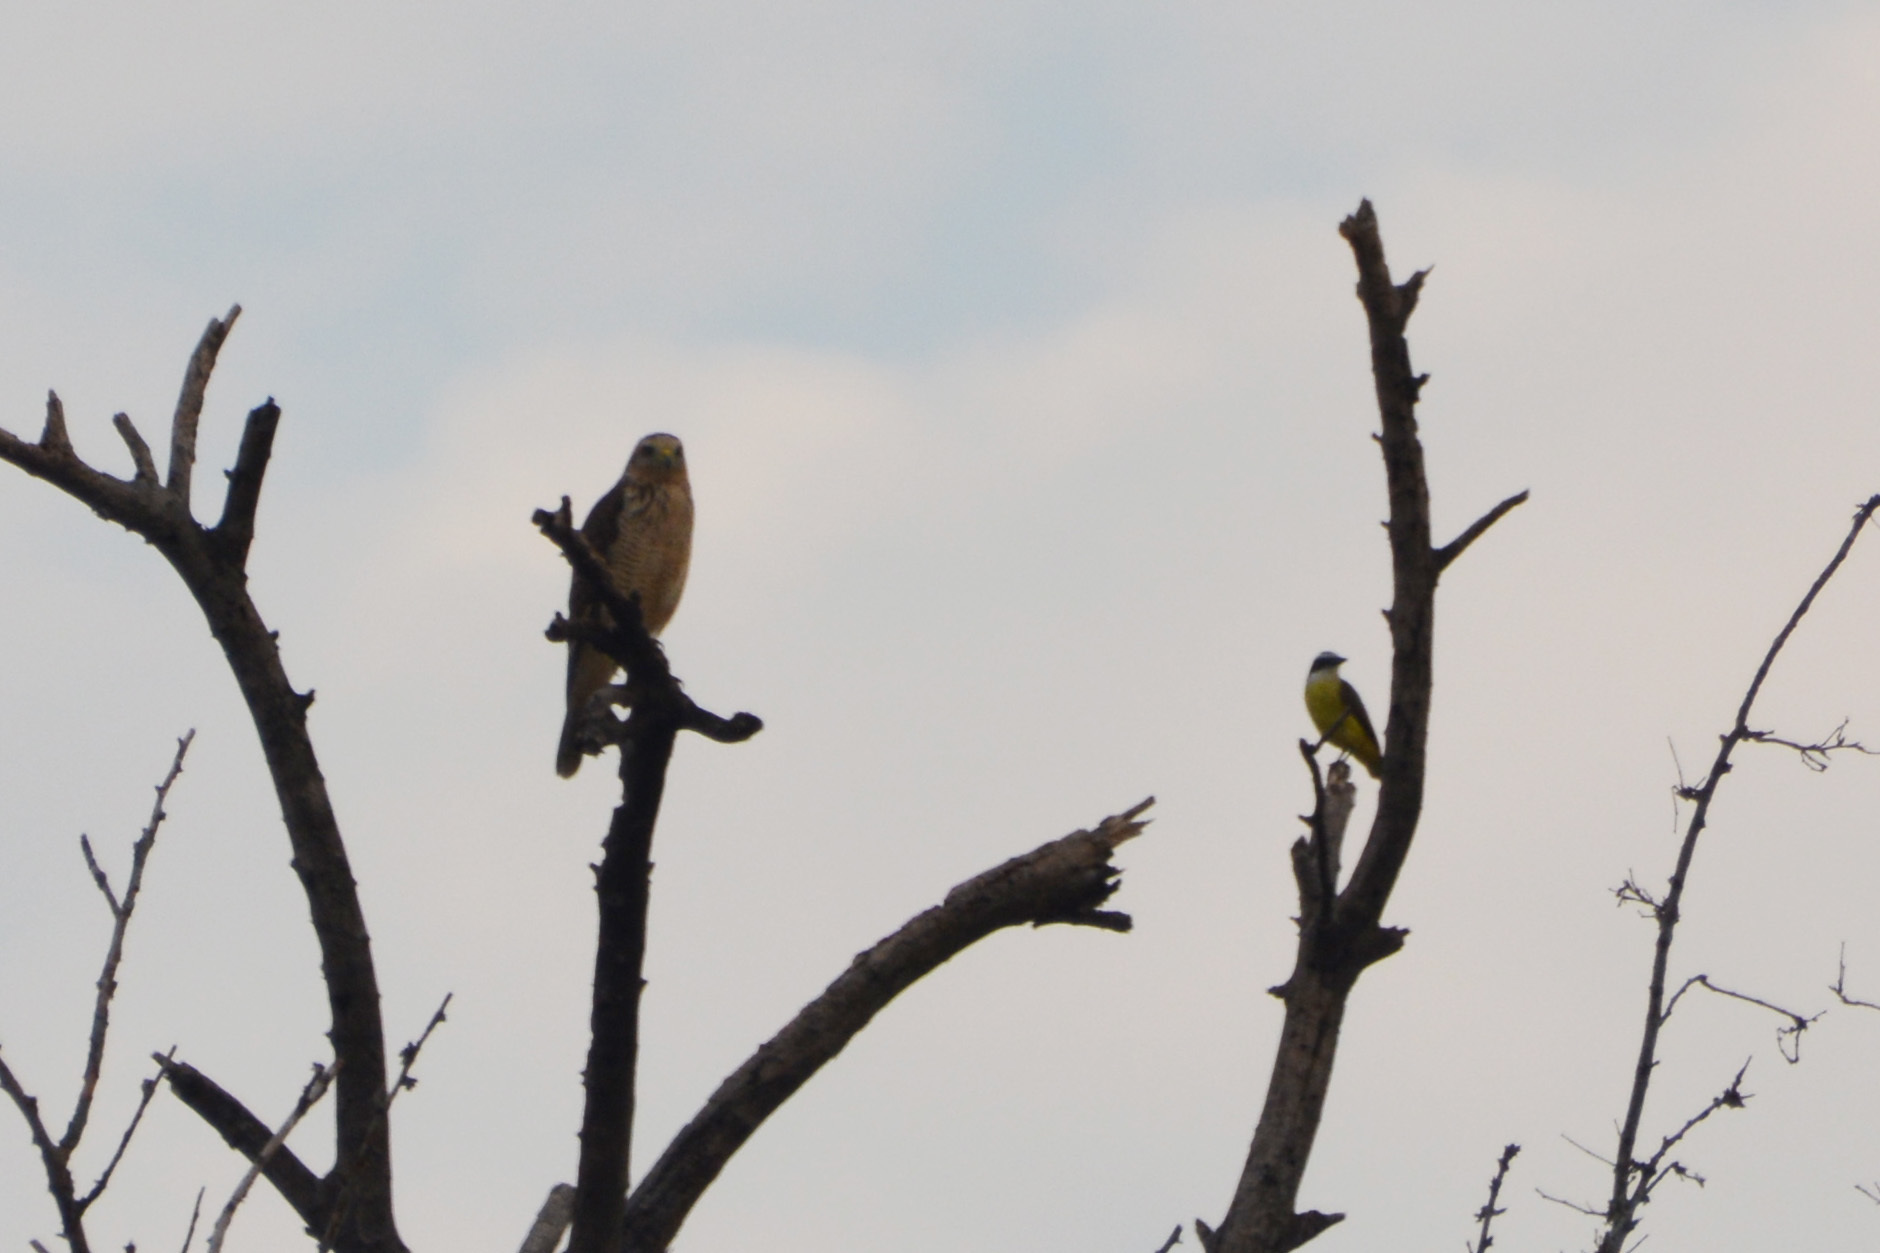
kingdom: Animalia
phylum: Chordata
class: Aves
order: Passeriformes
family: Tyrannidae
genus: Pitangus
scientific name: Pitangus sulphuratus
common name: Great kiskadee
